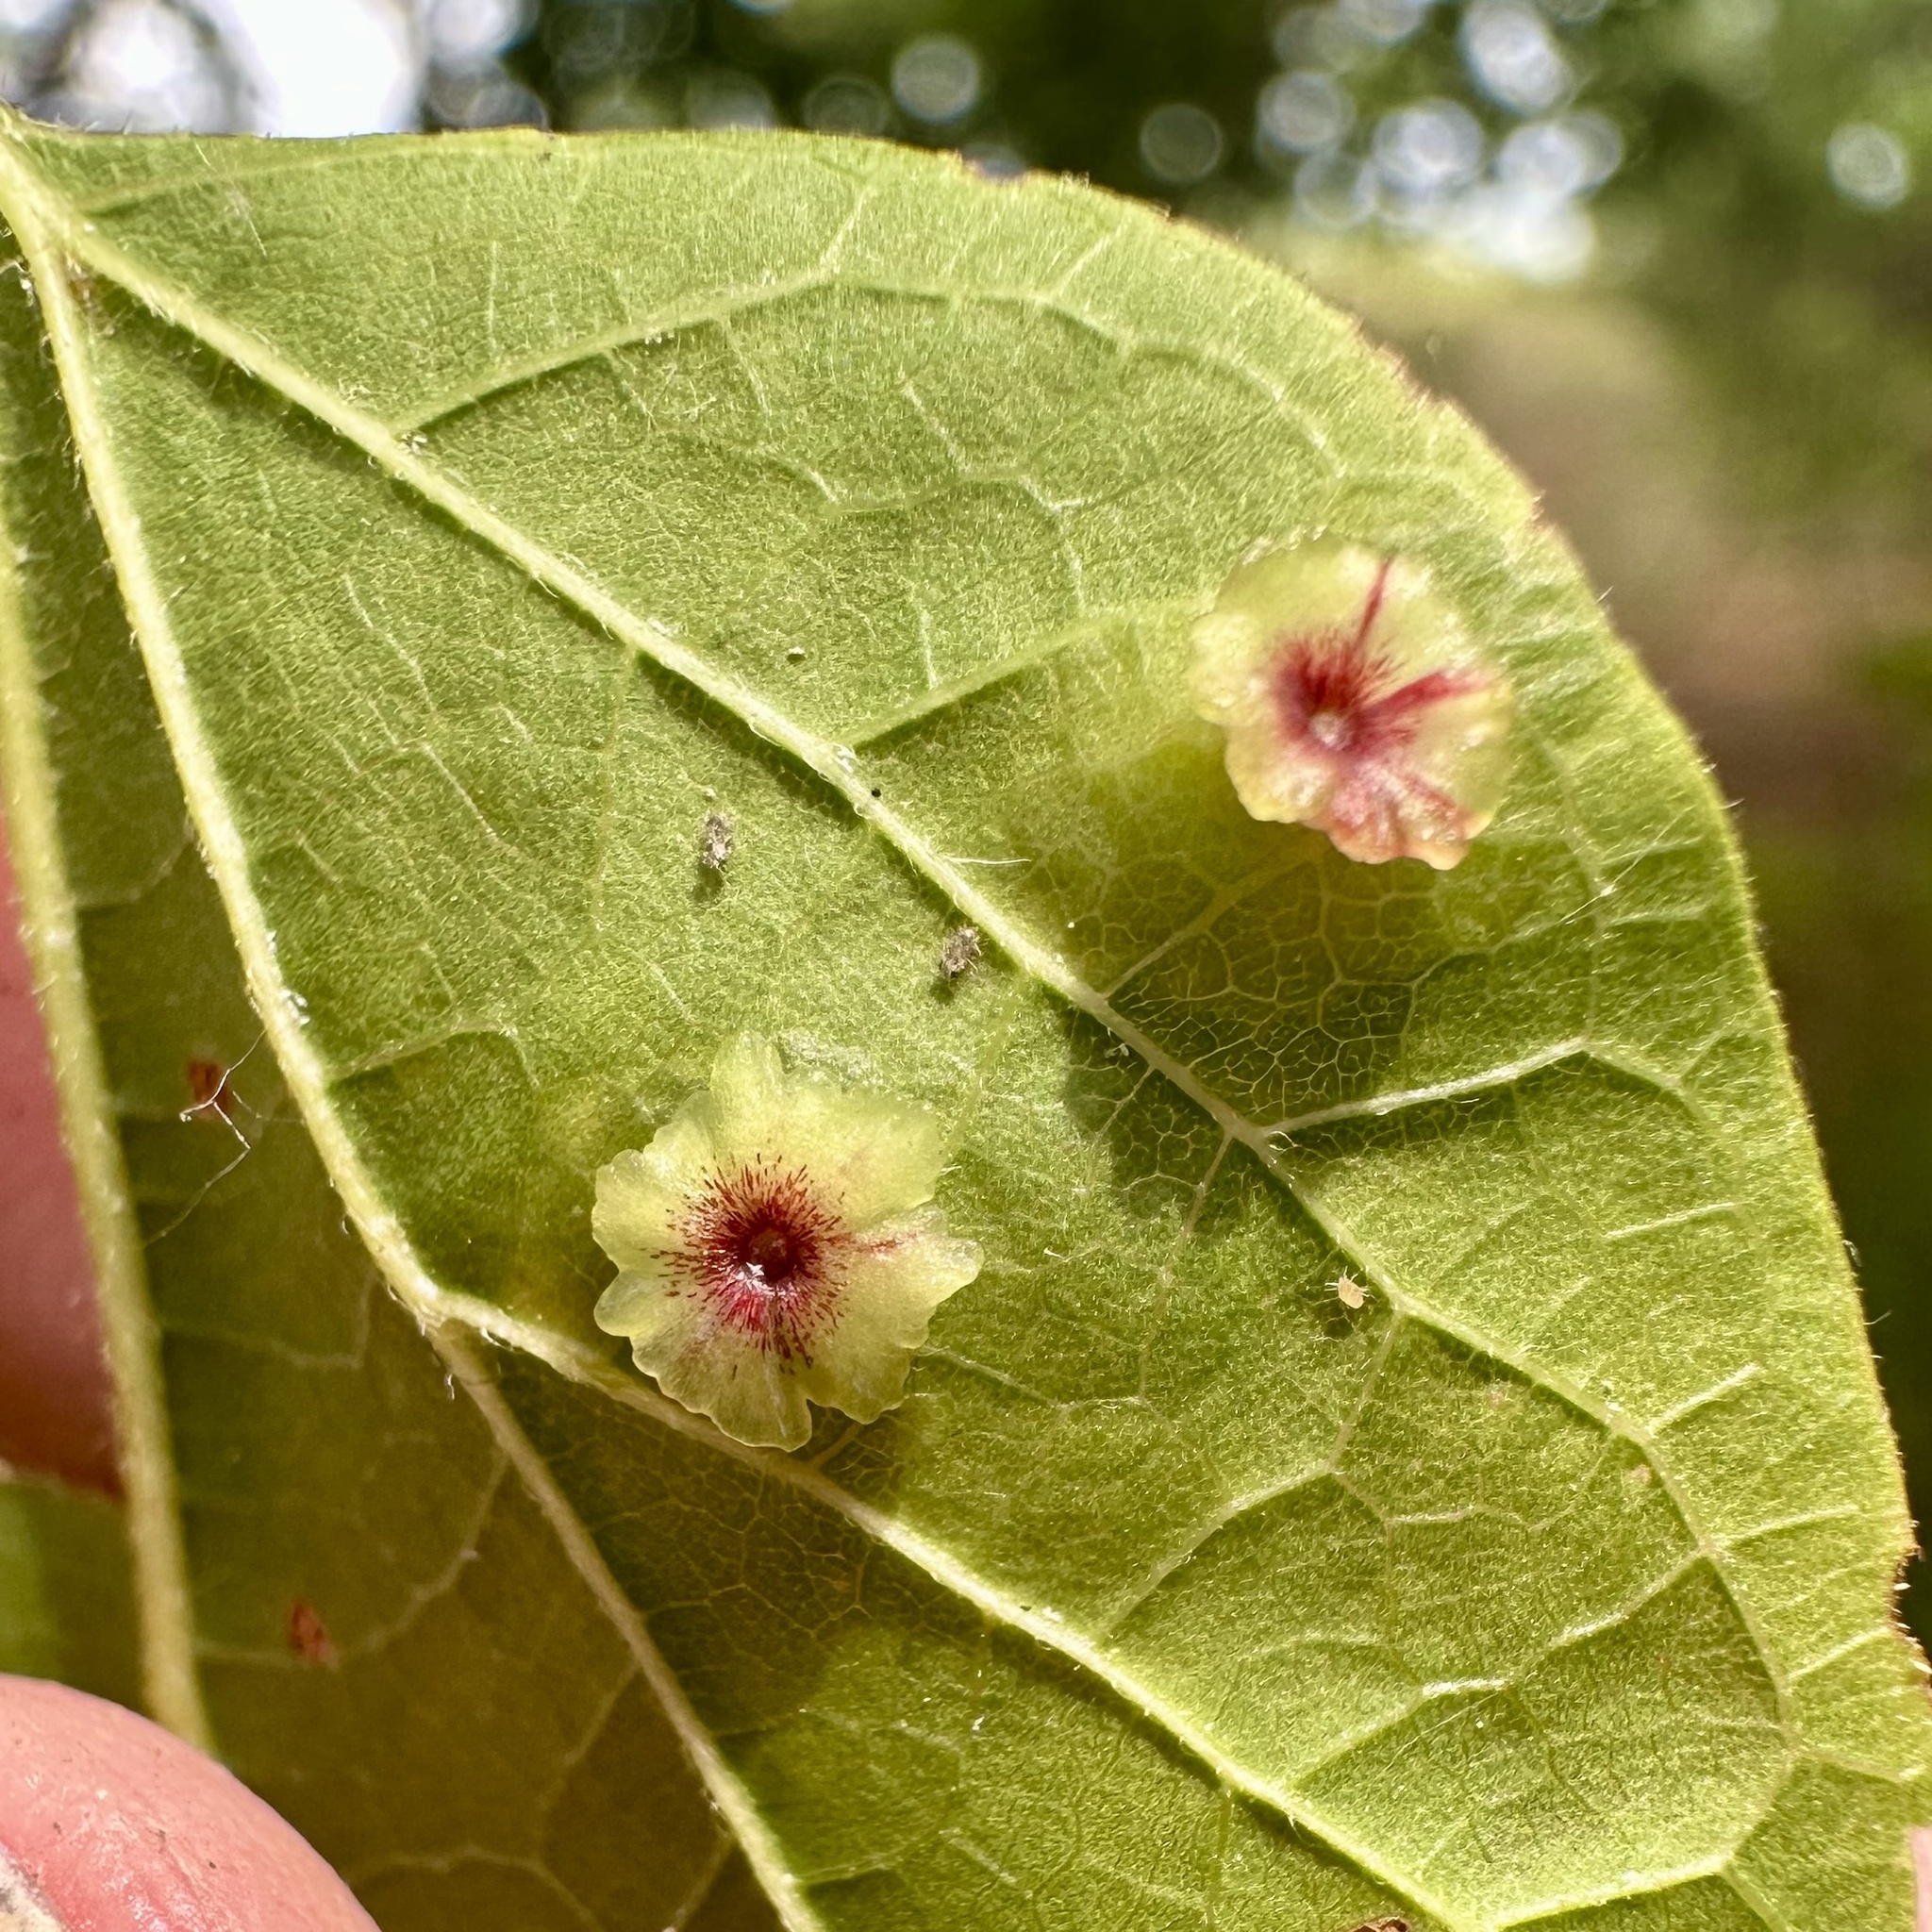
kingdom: Animalia
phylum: Arthropoda
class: Insecta
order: Hemiptera
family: Aphalaridae
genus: Pachypsylla
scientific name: Pachypsylla celtidisasterisca
